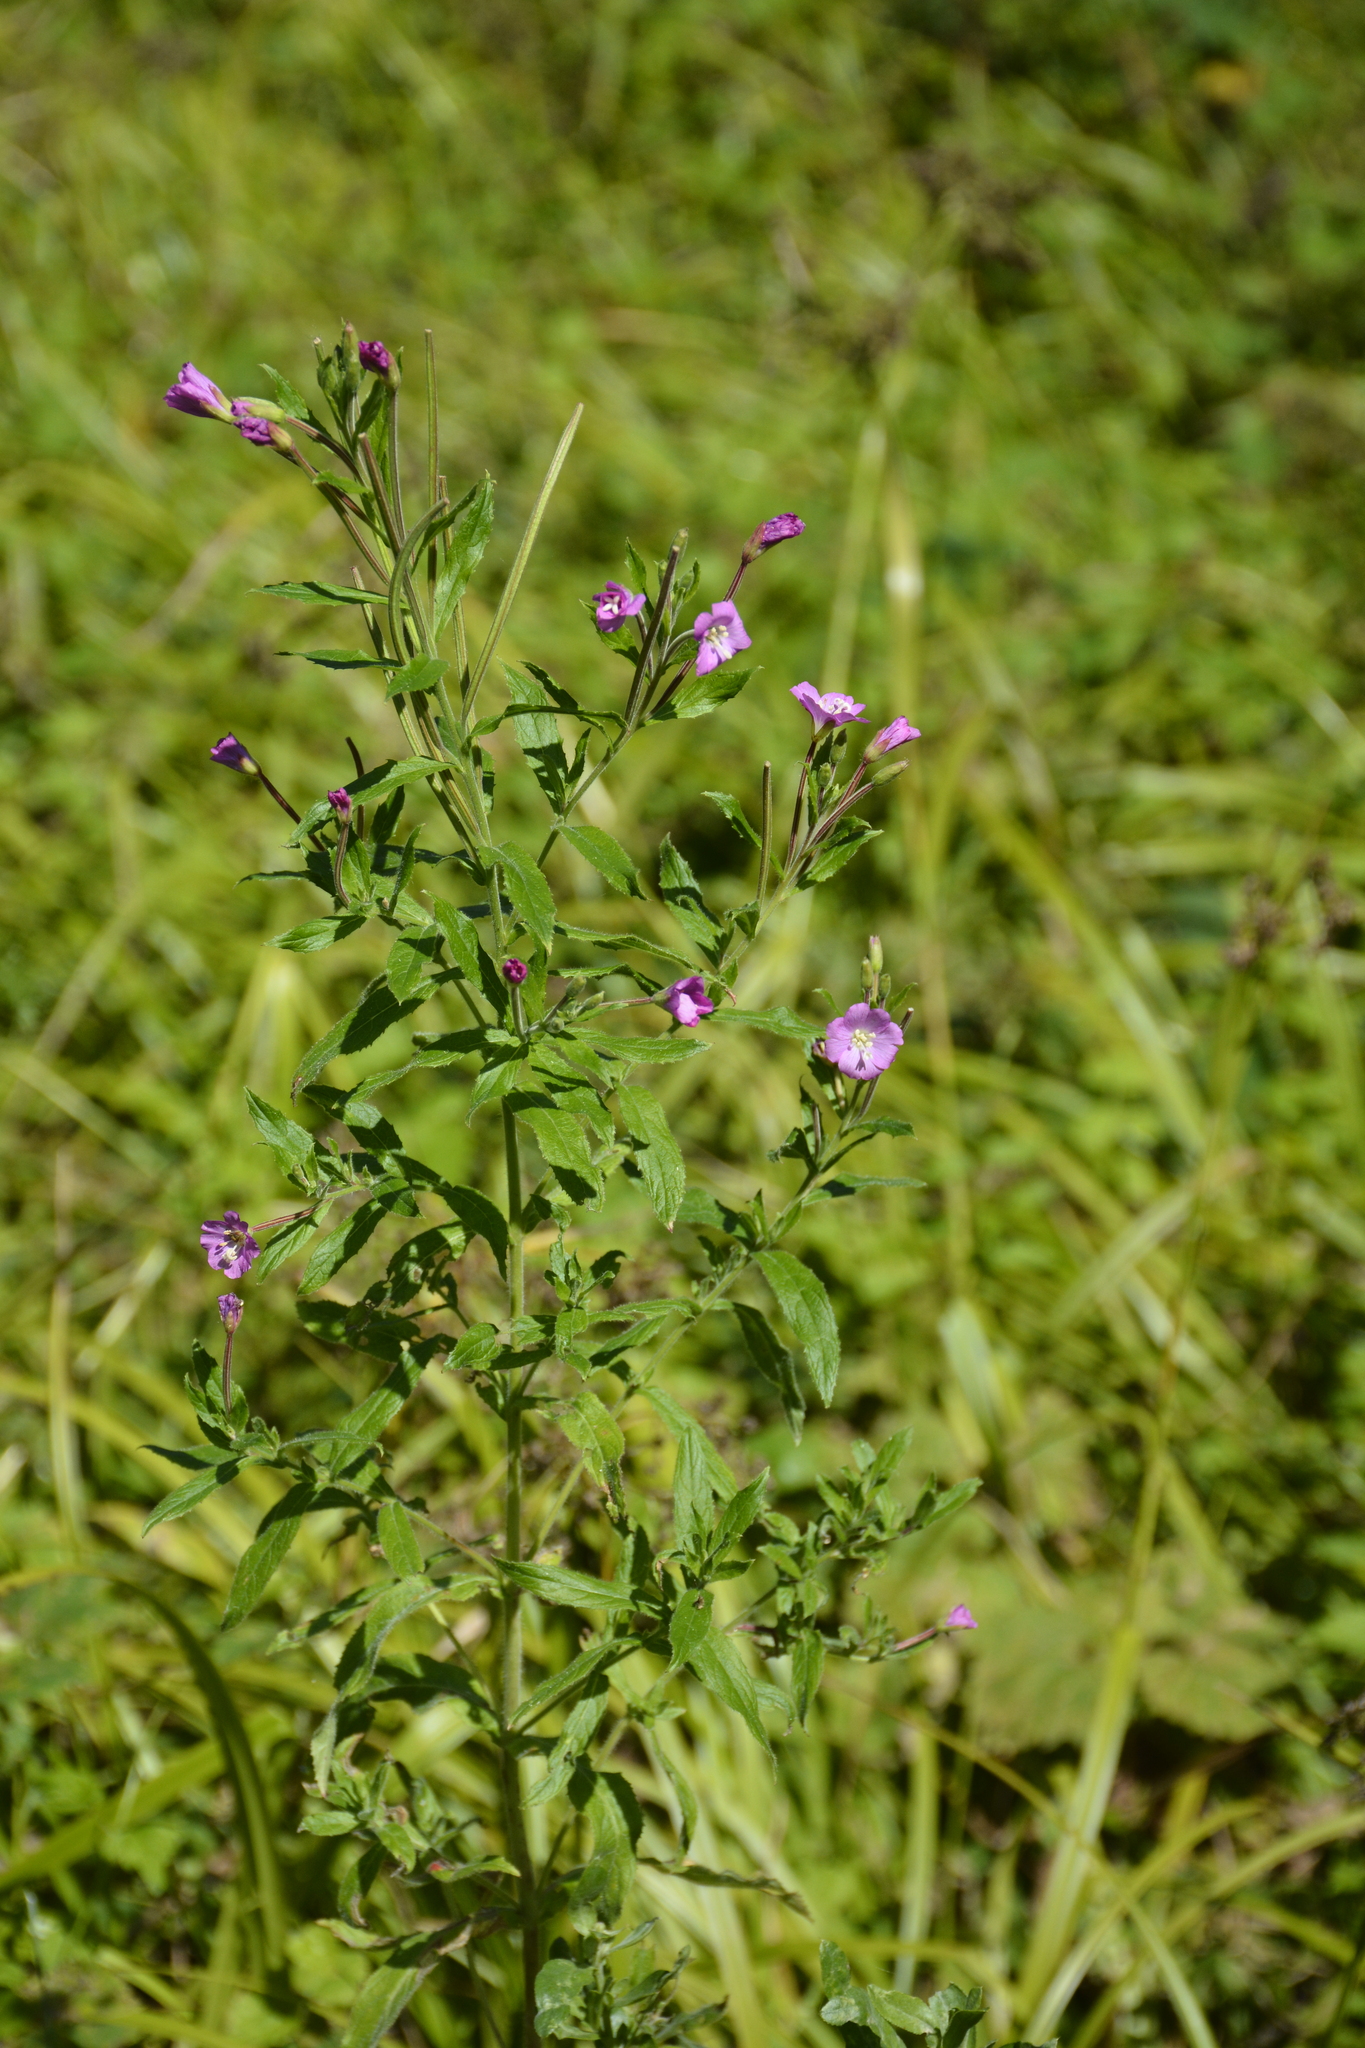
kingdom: Plantae
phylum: Tracheophyta
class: Magnoliopsida
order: Myrtales
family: Onagraceae
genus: Epilobium
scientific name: Epilobium hirsutum
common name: Great willowherb
